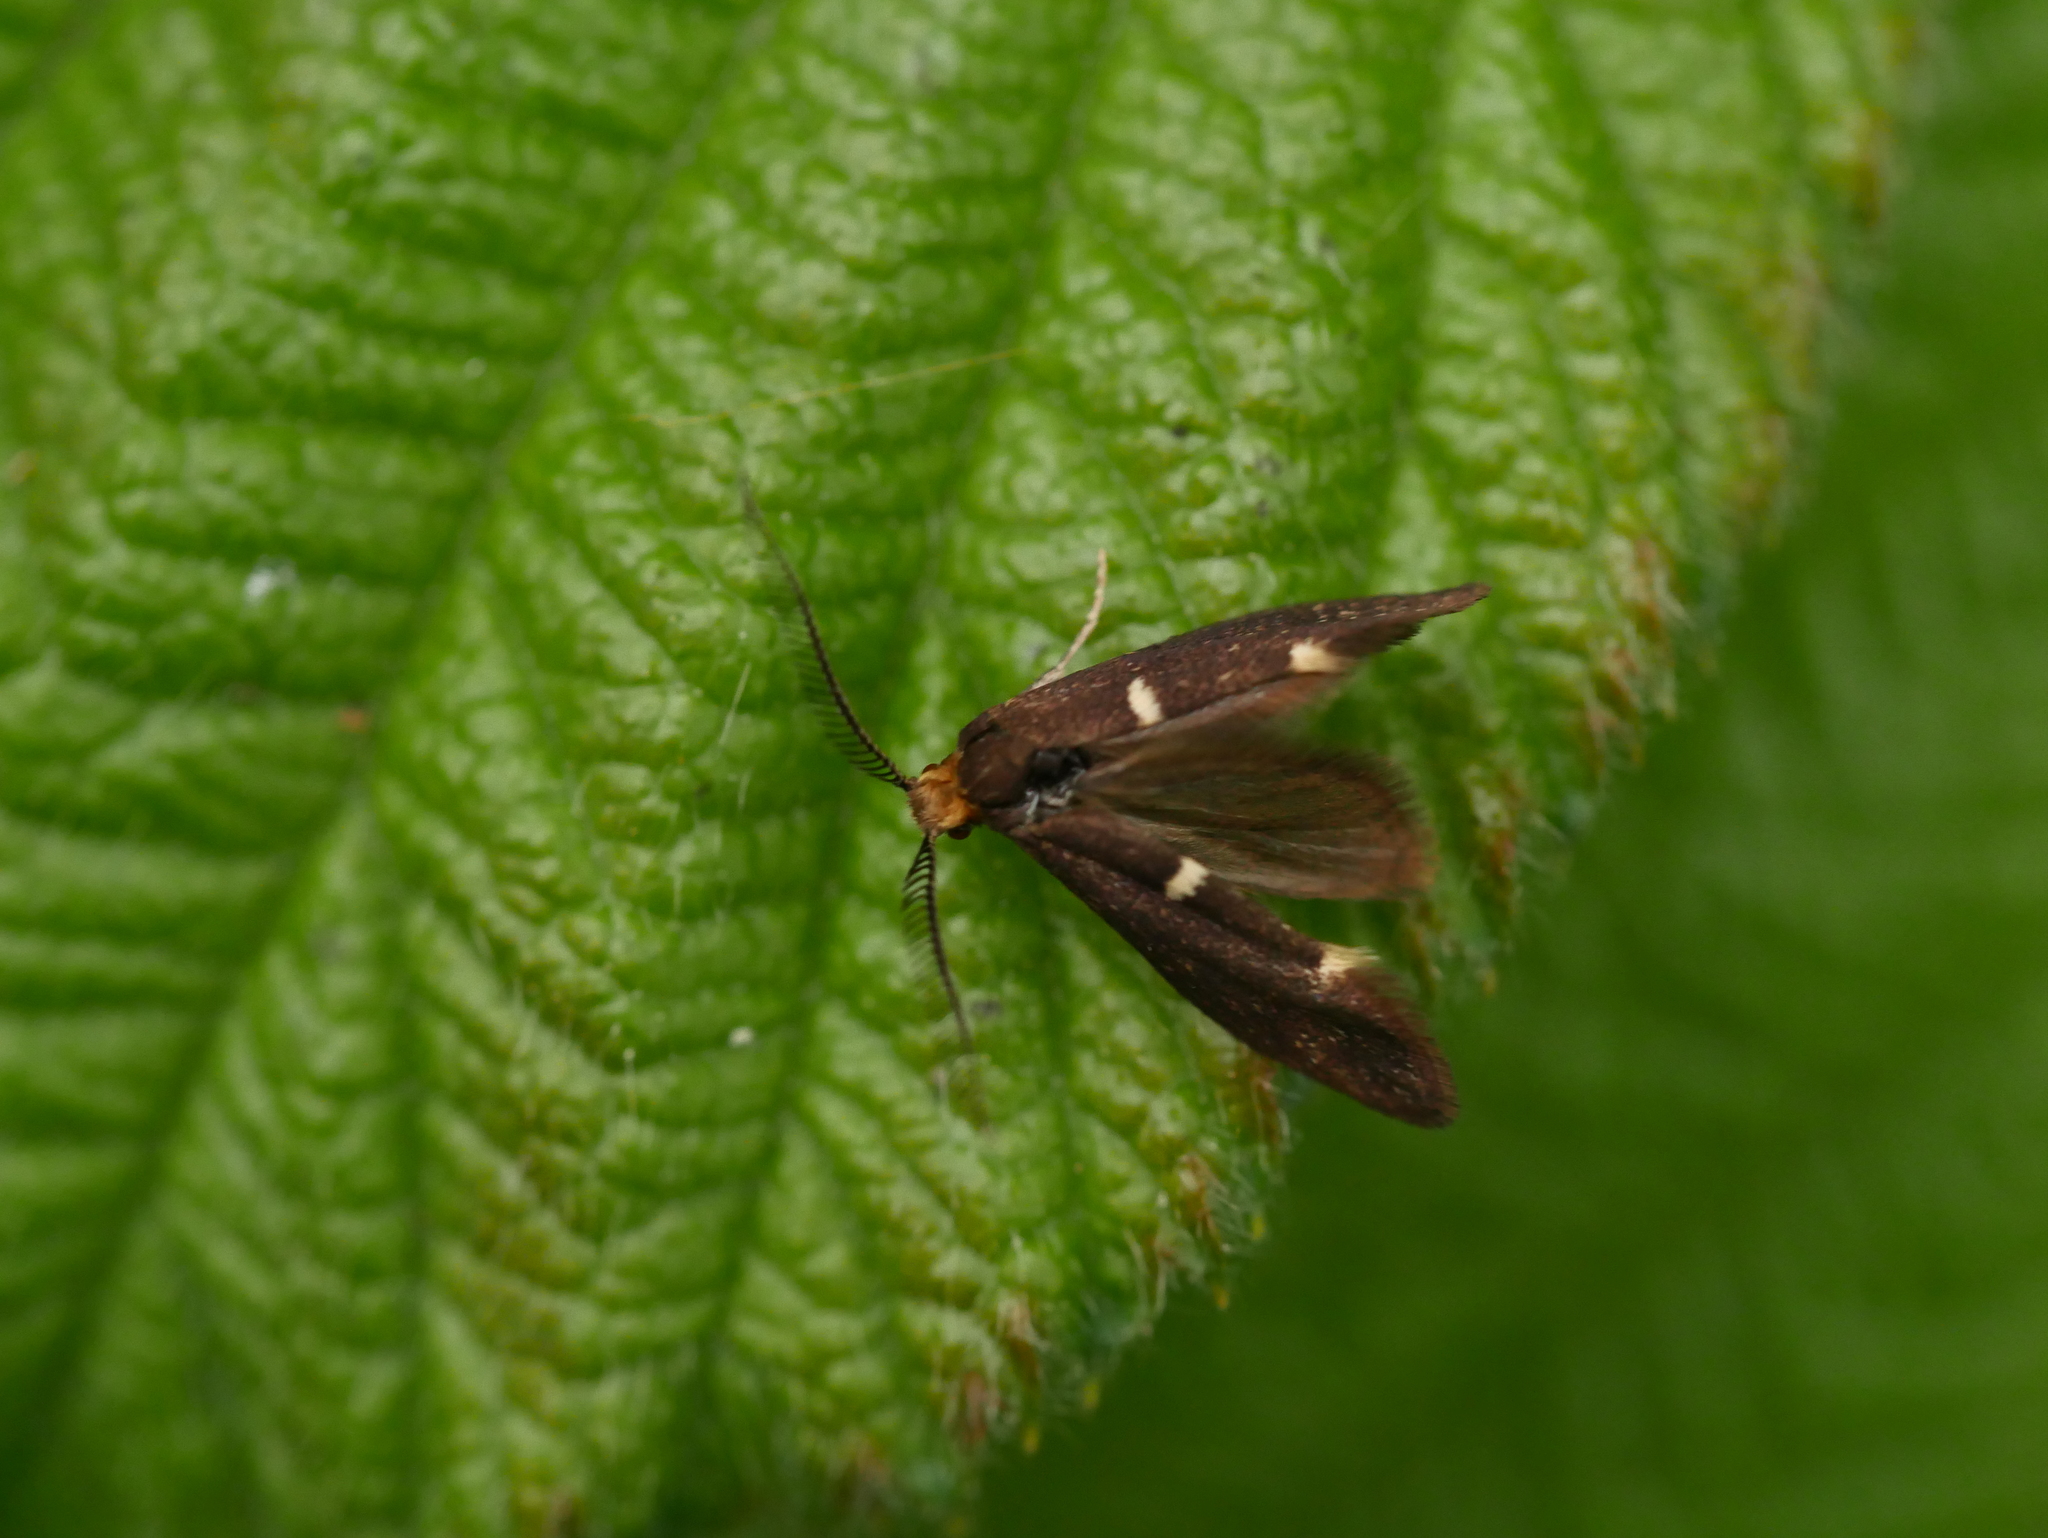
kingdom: Animalia
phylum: Arthropoda
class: Insecta
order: Lepidoptera
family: Incurvariidae
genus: Incurvaria
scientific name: Incurvaria masculella
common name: Feathered leaf-cutter
